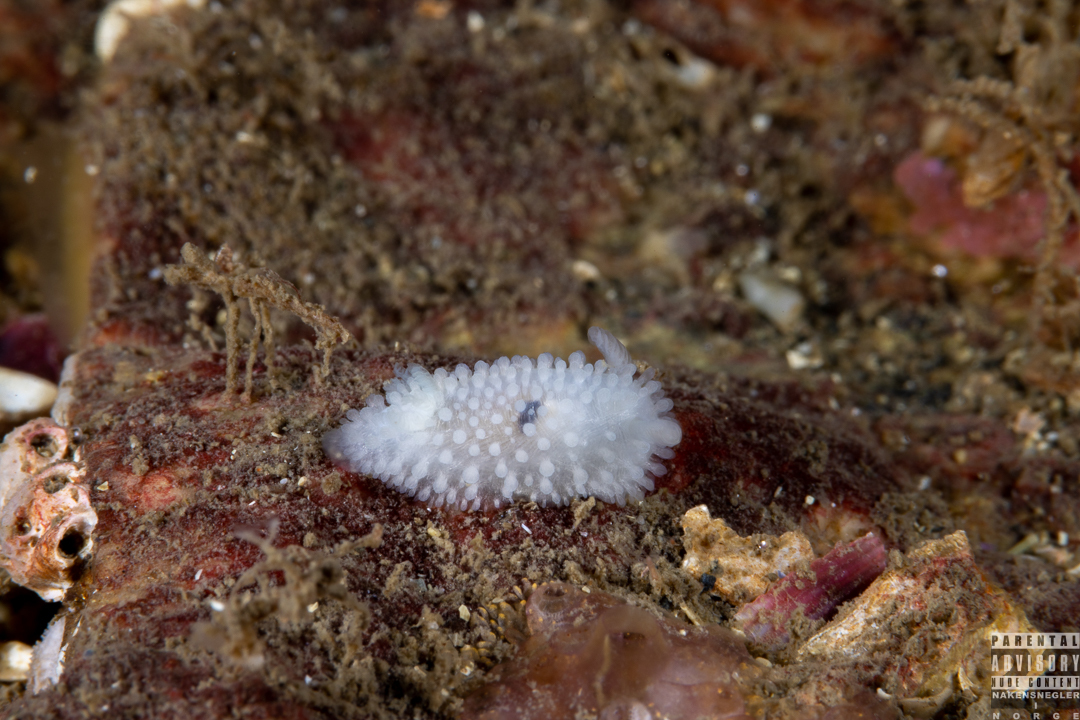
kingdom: Animalia
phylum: Mollusca
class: Gastropoda
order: Nudibranchia
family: Onchidorididae
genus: Onchidoris
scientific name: Onchidoris muricata
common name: Rough doris
